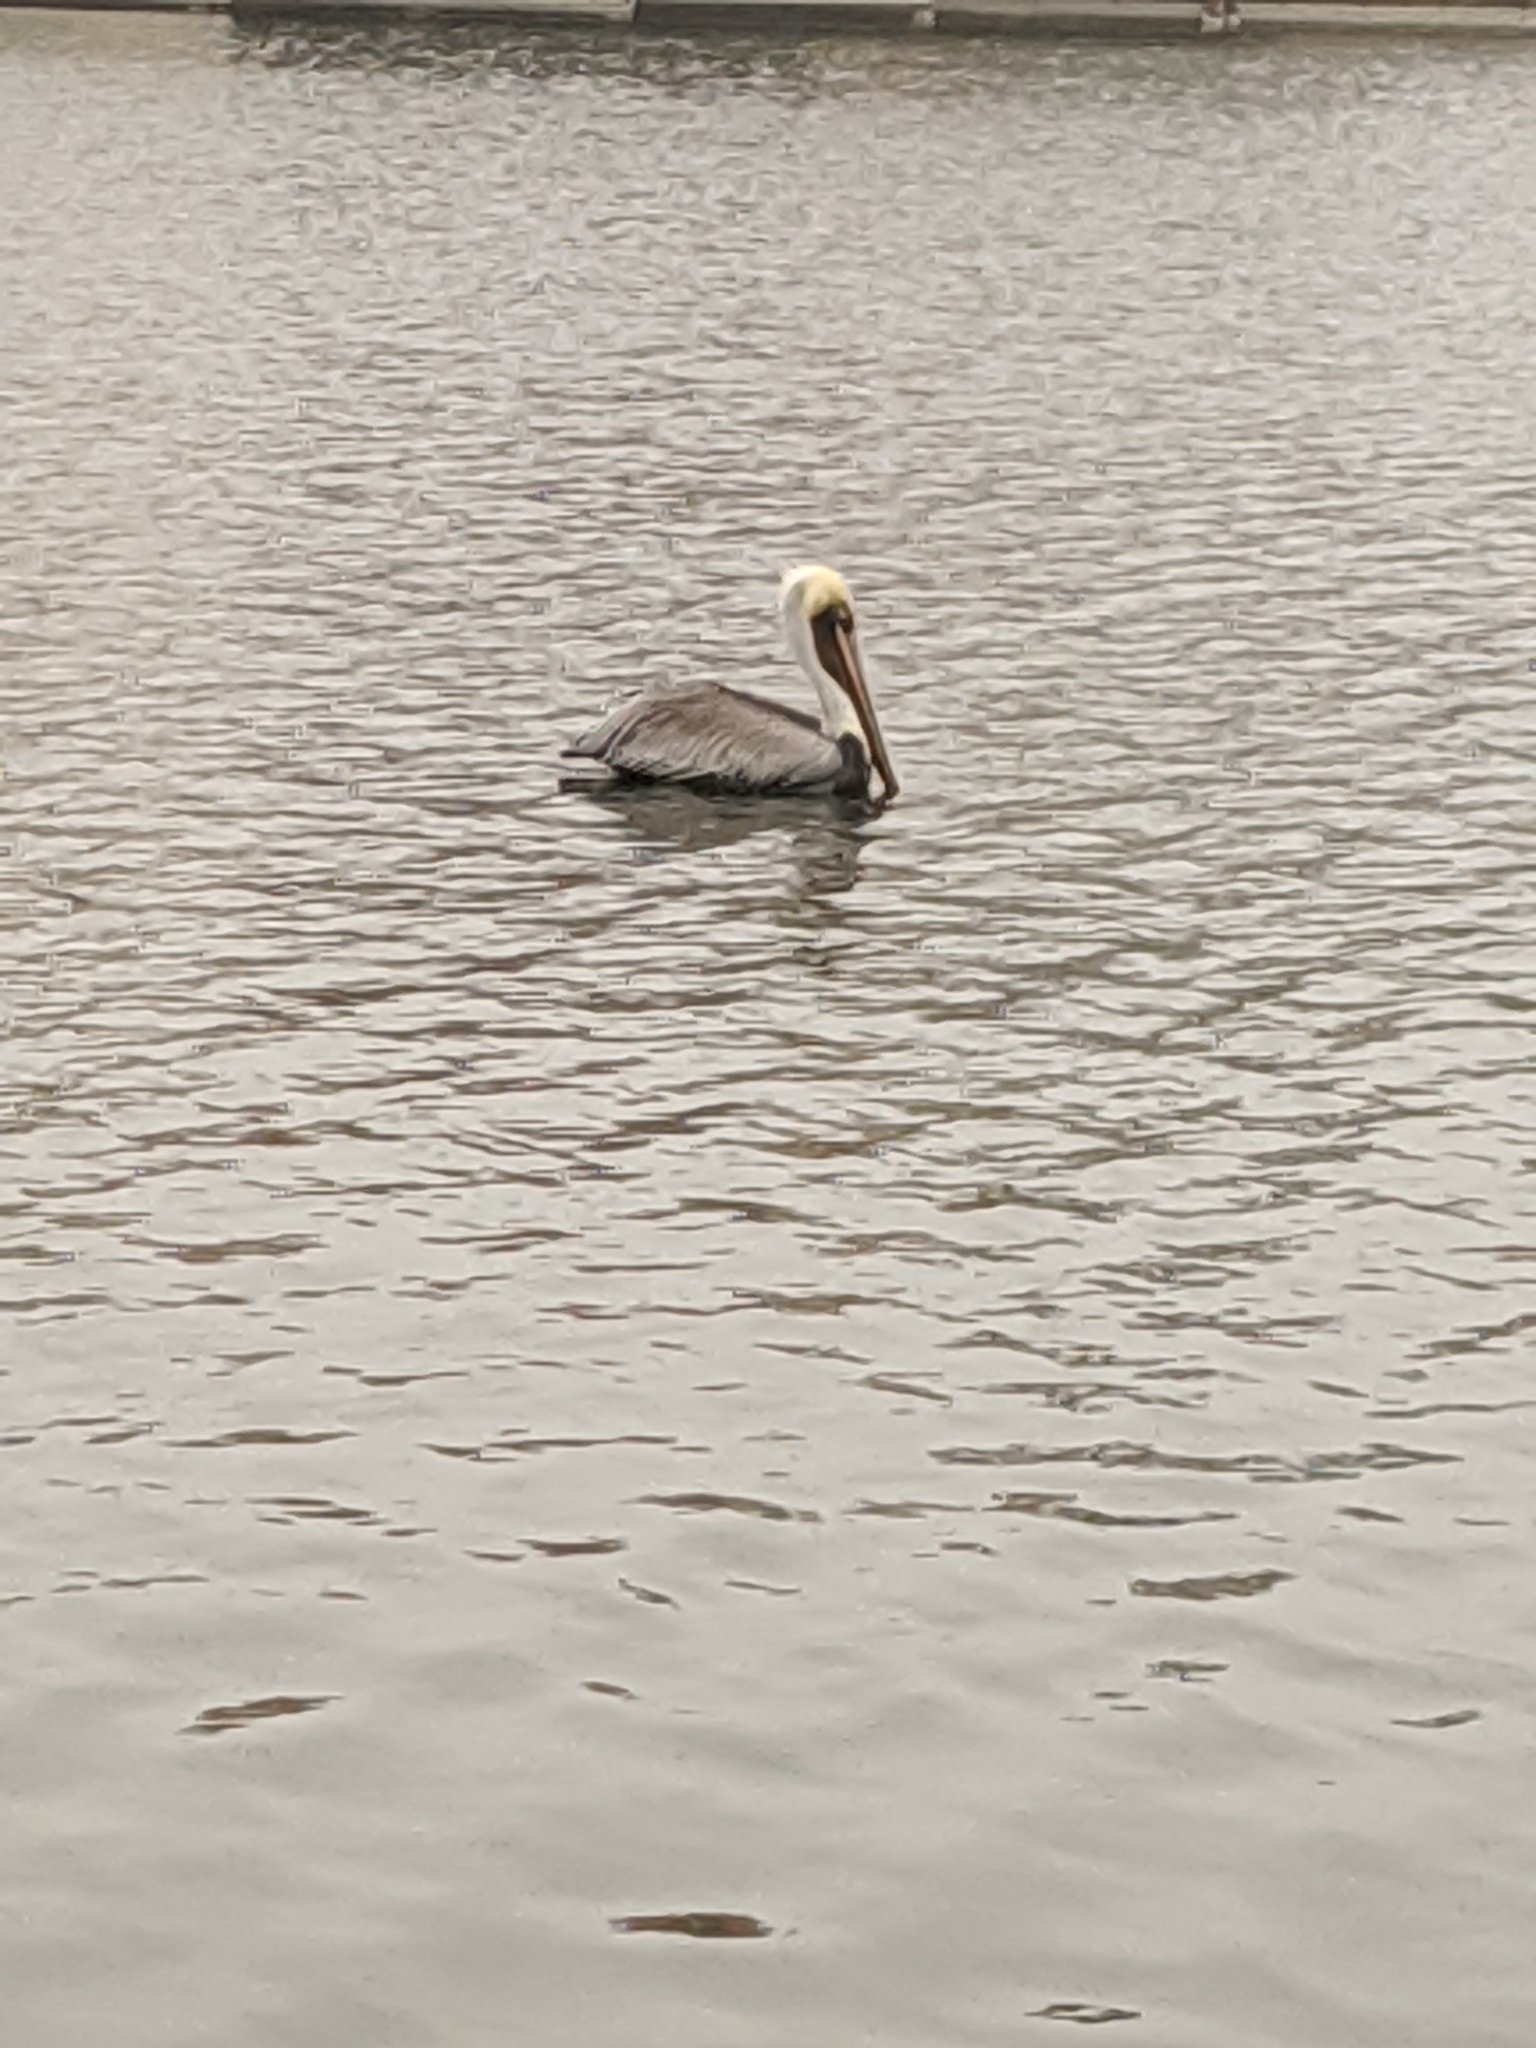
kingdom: Animalia
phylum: Chordata
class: Aves
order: Pelecaniformes
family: Pelecanidae
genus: Pelecanus
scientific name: Pelecanus occidentalis
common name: Brown pelican
